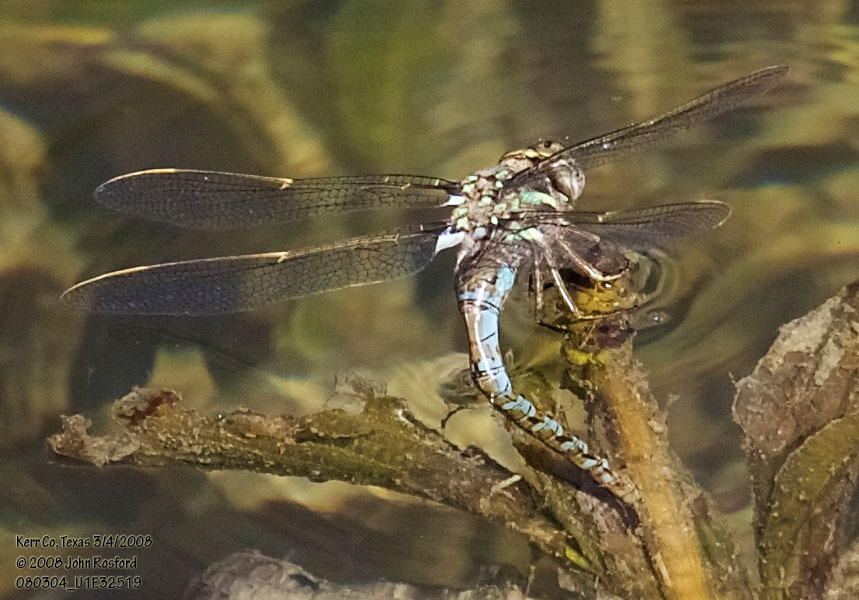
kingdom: Animalia
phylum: Arthropoda
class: Insecta
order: Odonata
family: Aeshnidae
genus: Basiaeschna
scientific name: Basiaeschna janata
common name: Springtime darner
